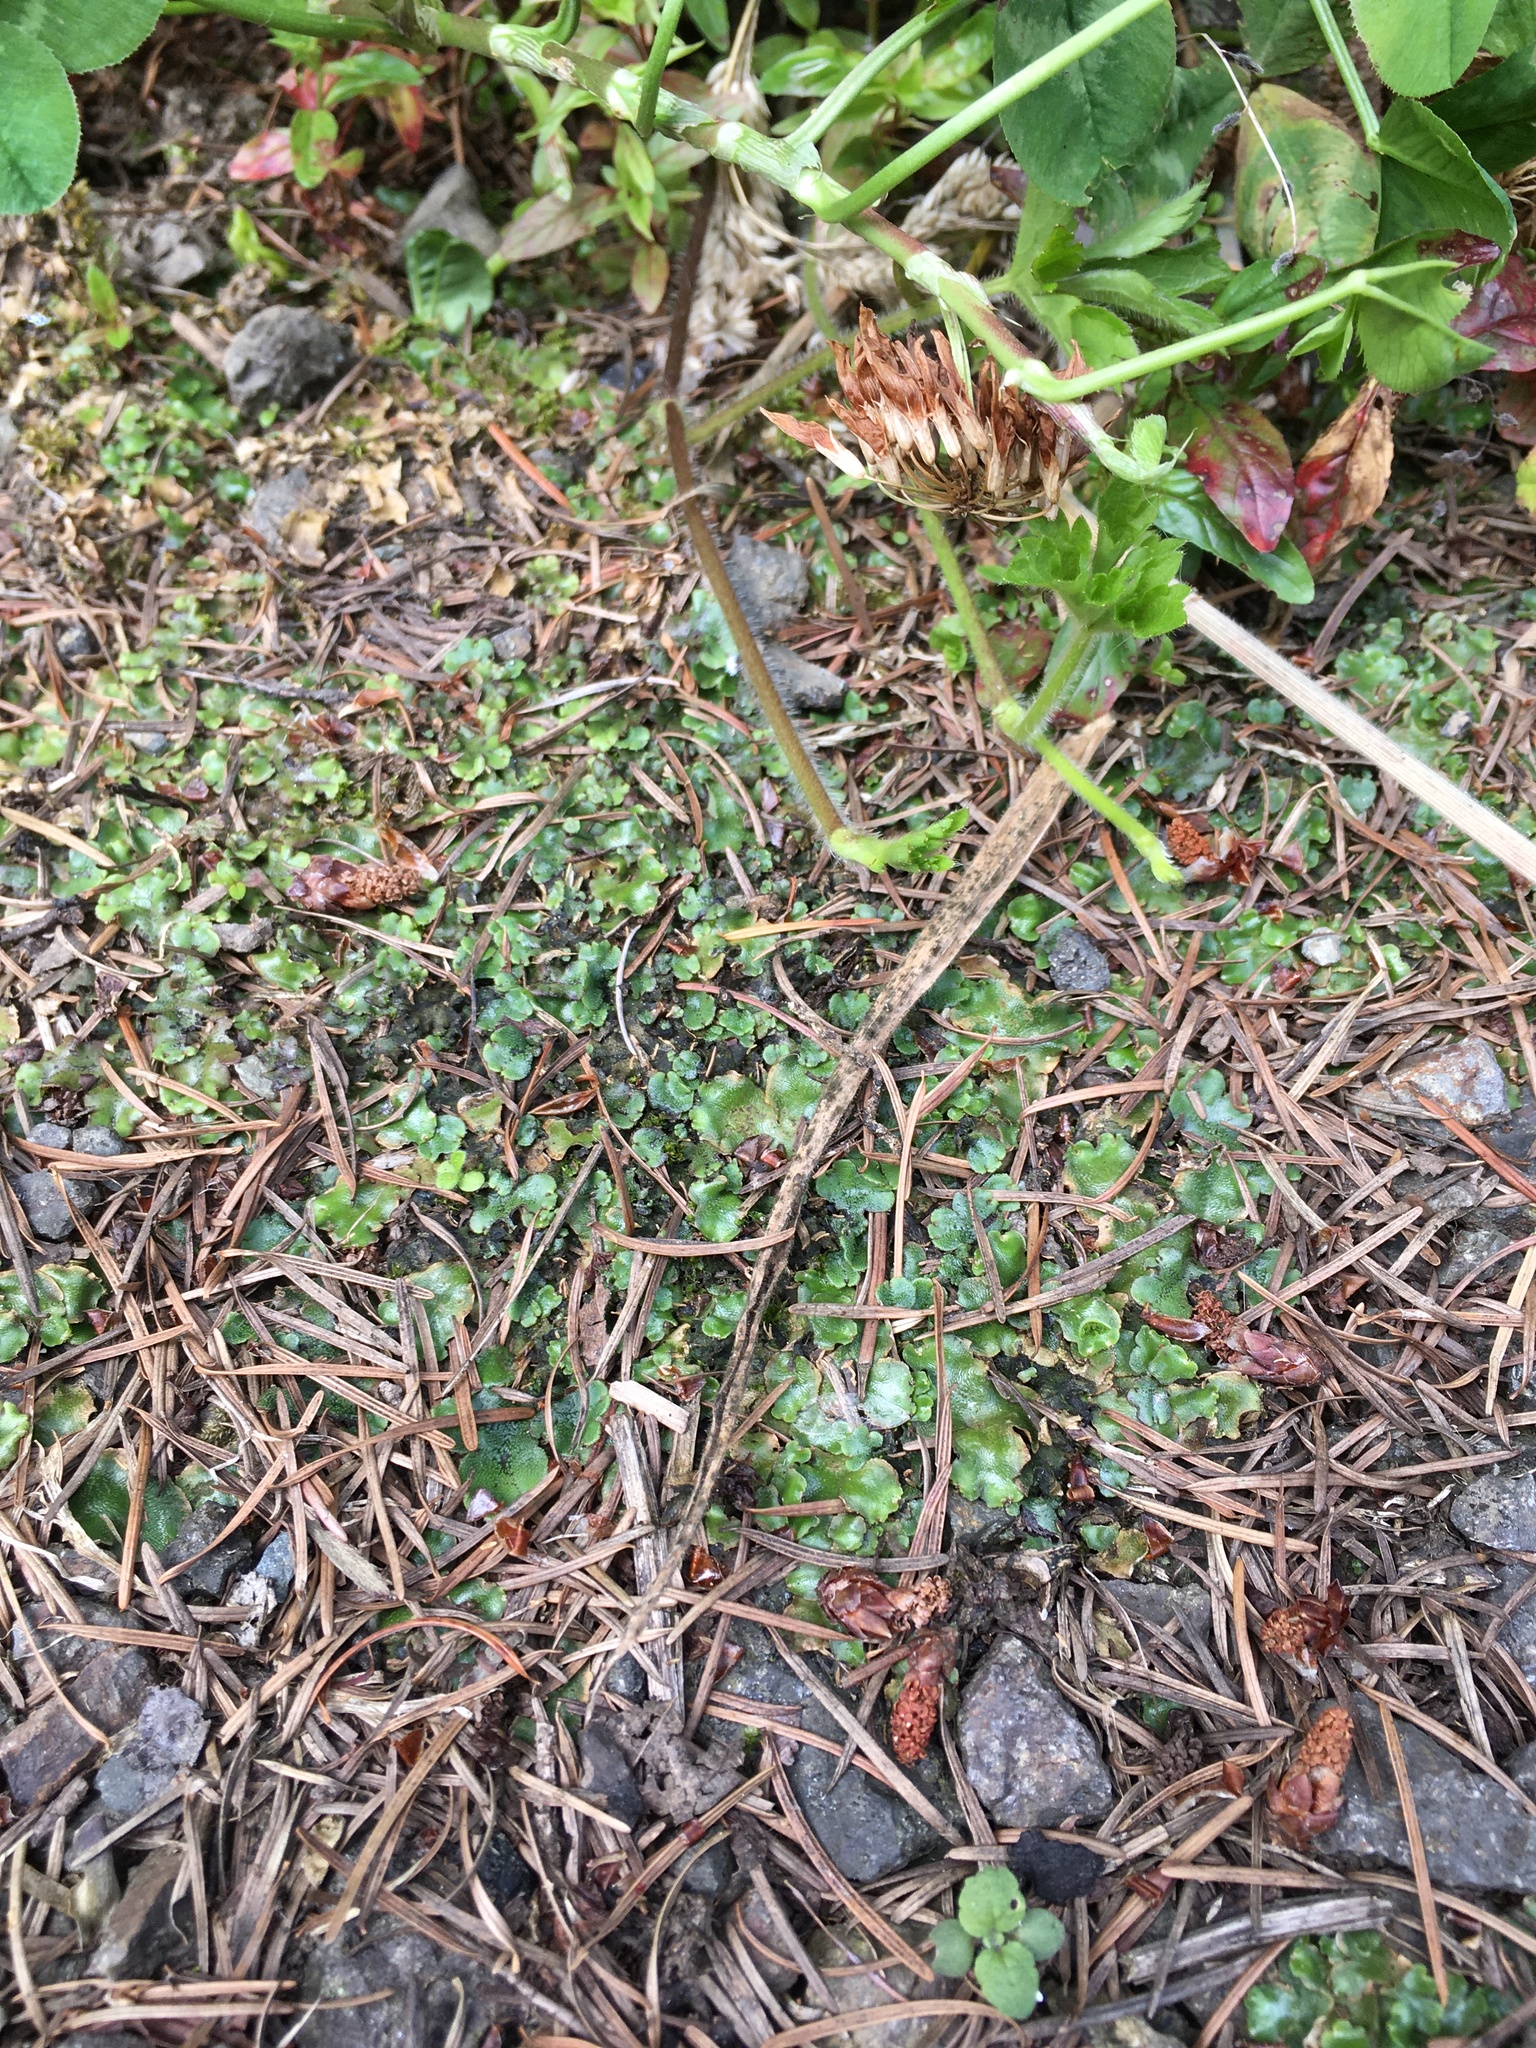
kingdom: Plantae
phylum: Marchantiophyta
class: Marchantiopsida
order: Lunulariales
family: Lunulariaceae
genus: Lunularia
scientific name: Lunularia cruciata
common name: Crescent-cup liverwort
